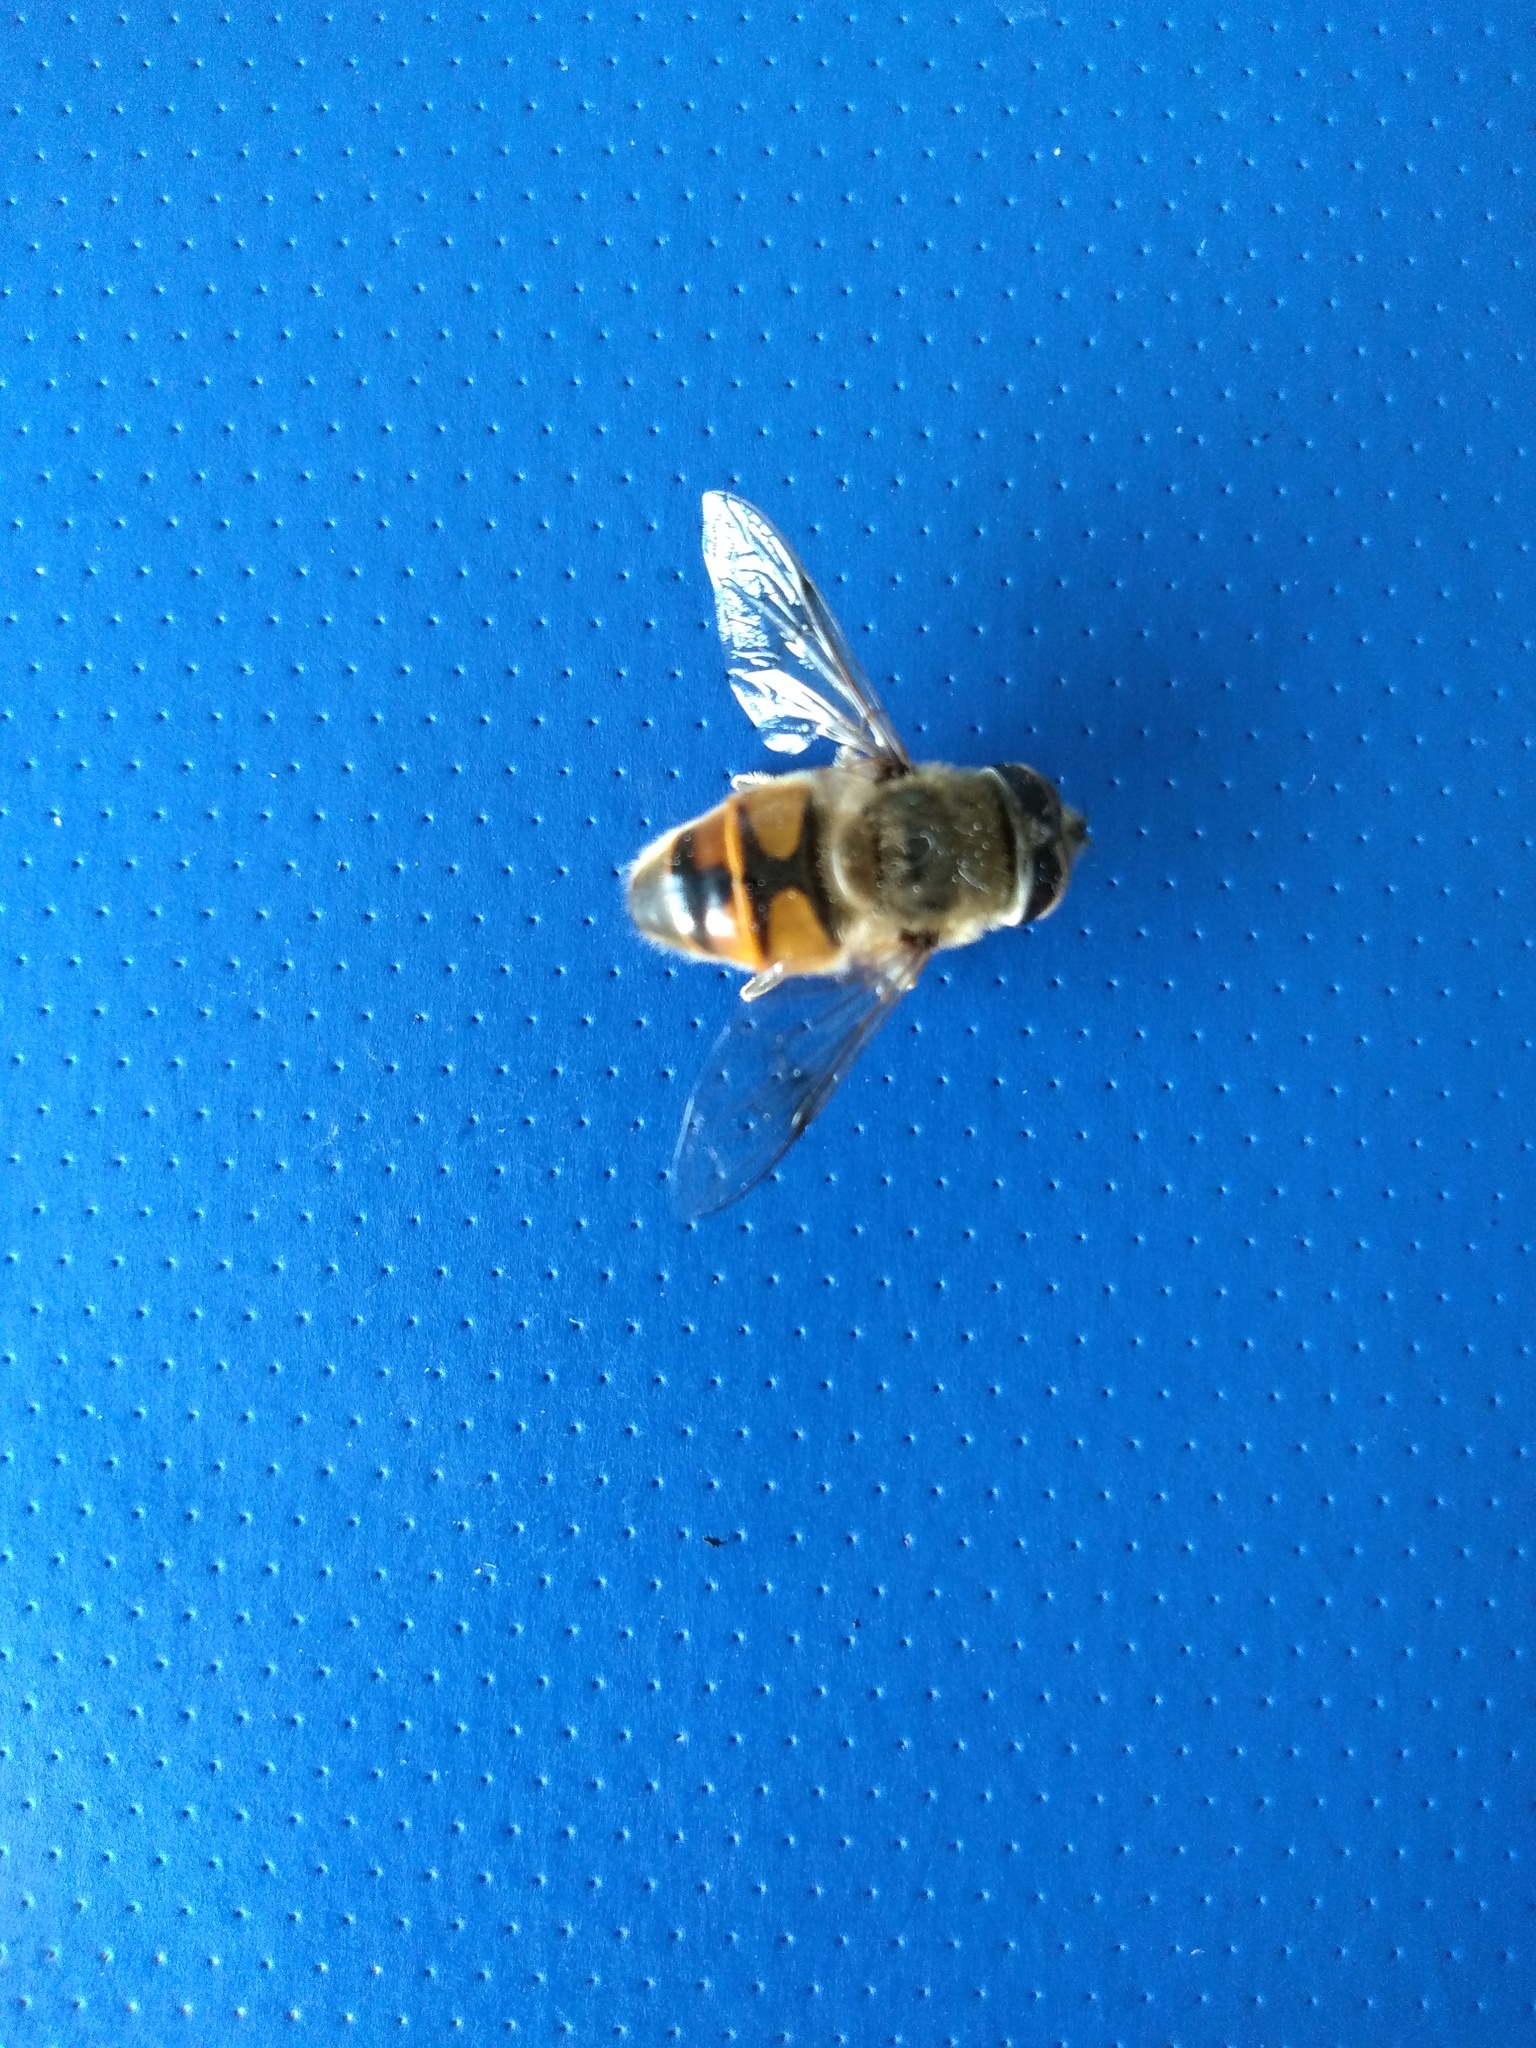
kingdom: Animalia
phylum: Arthropoda
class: Insecta
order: Diptera
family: Syrphidae
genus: Eristalis
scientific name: Eristalis tenax
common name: Drone fly
